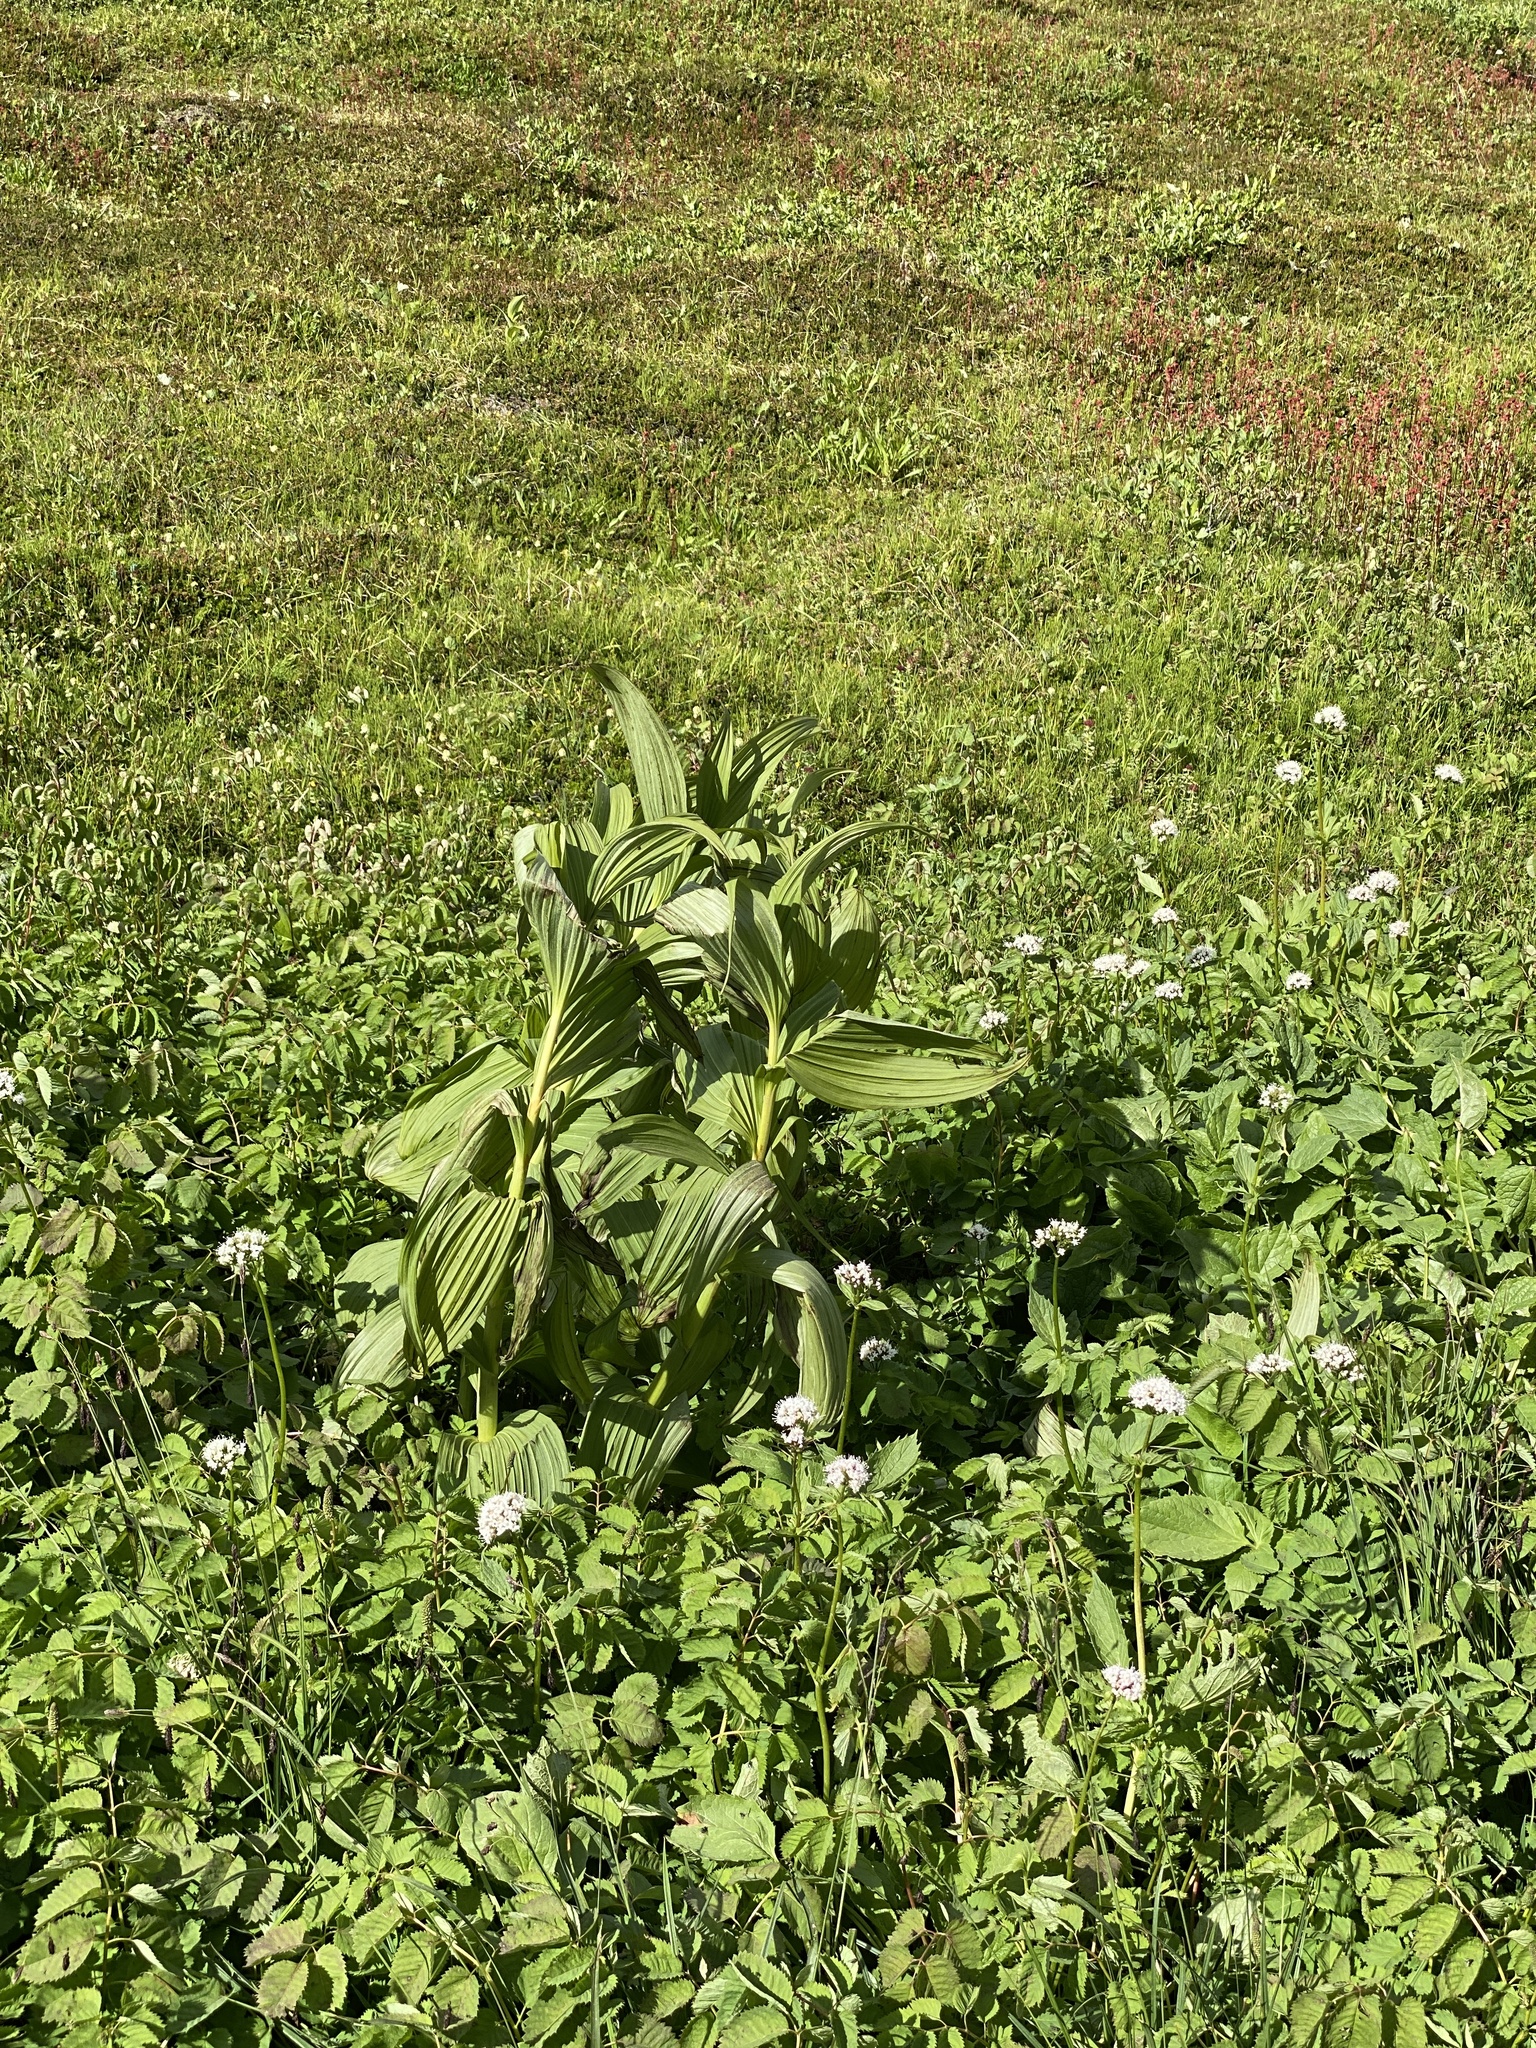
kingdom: Plantae
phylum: Tracheophyta
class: Liliopsida
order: Liliales
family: Melanthiaceae
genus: Veratrum
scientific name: Veratrum viride
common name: American false hellebore
